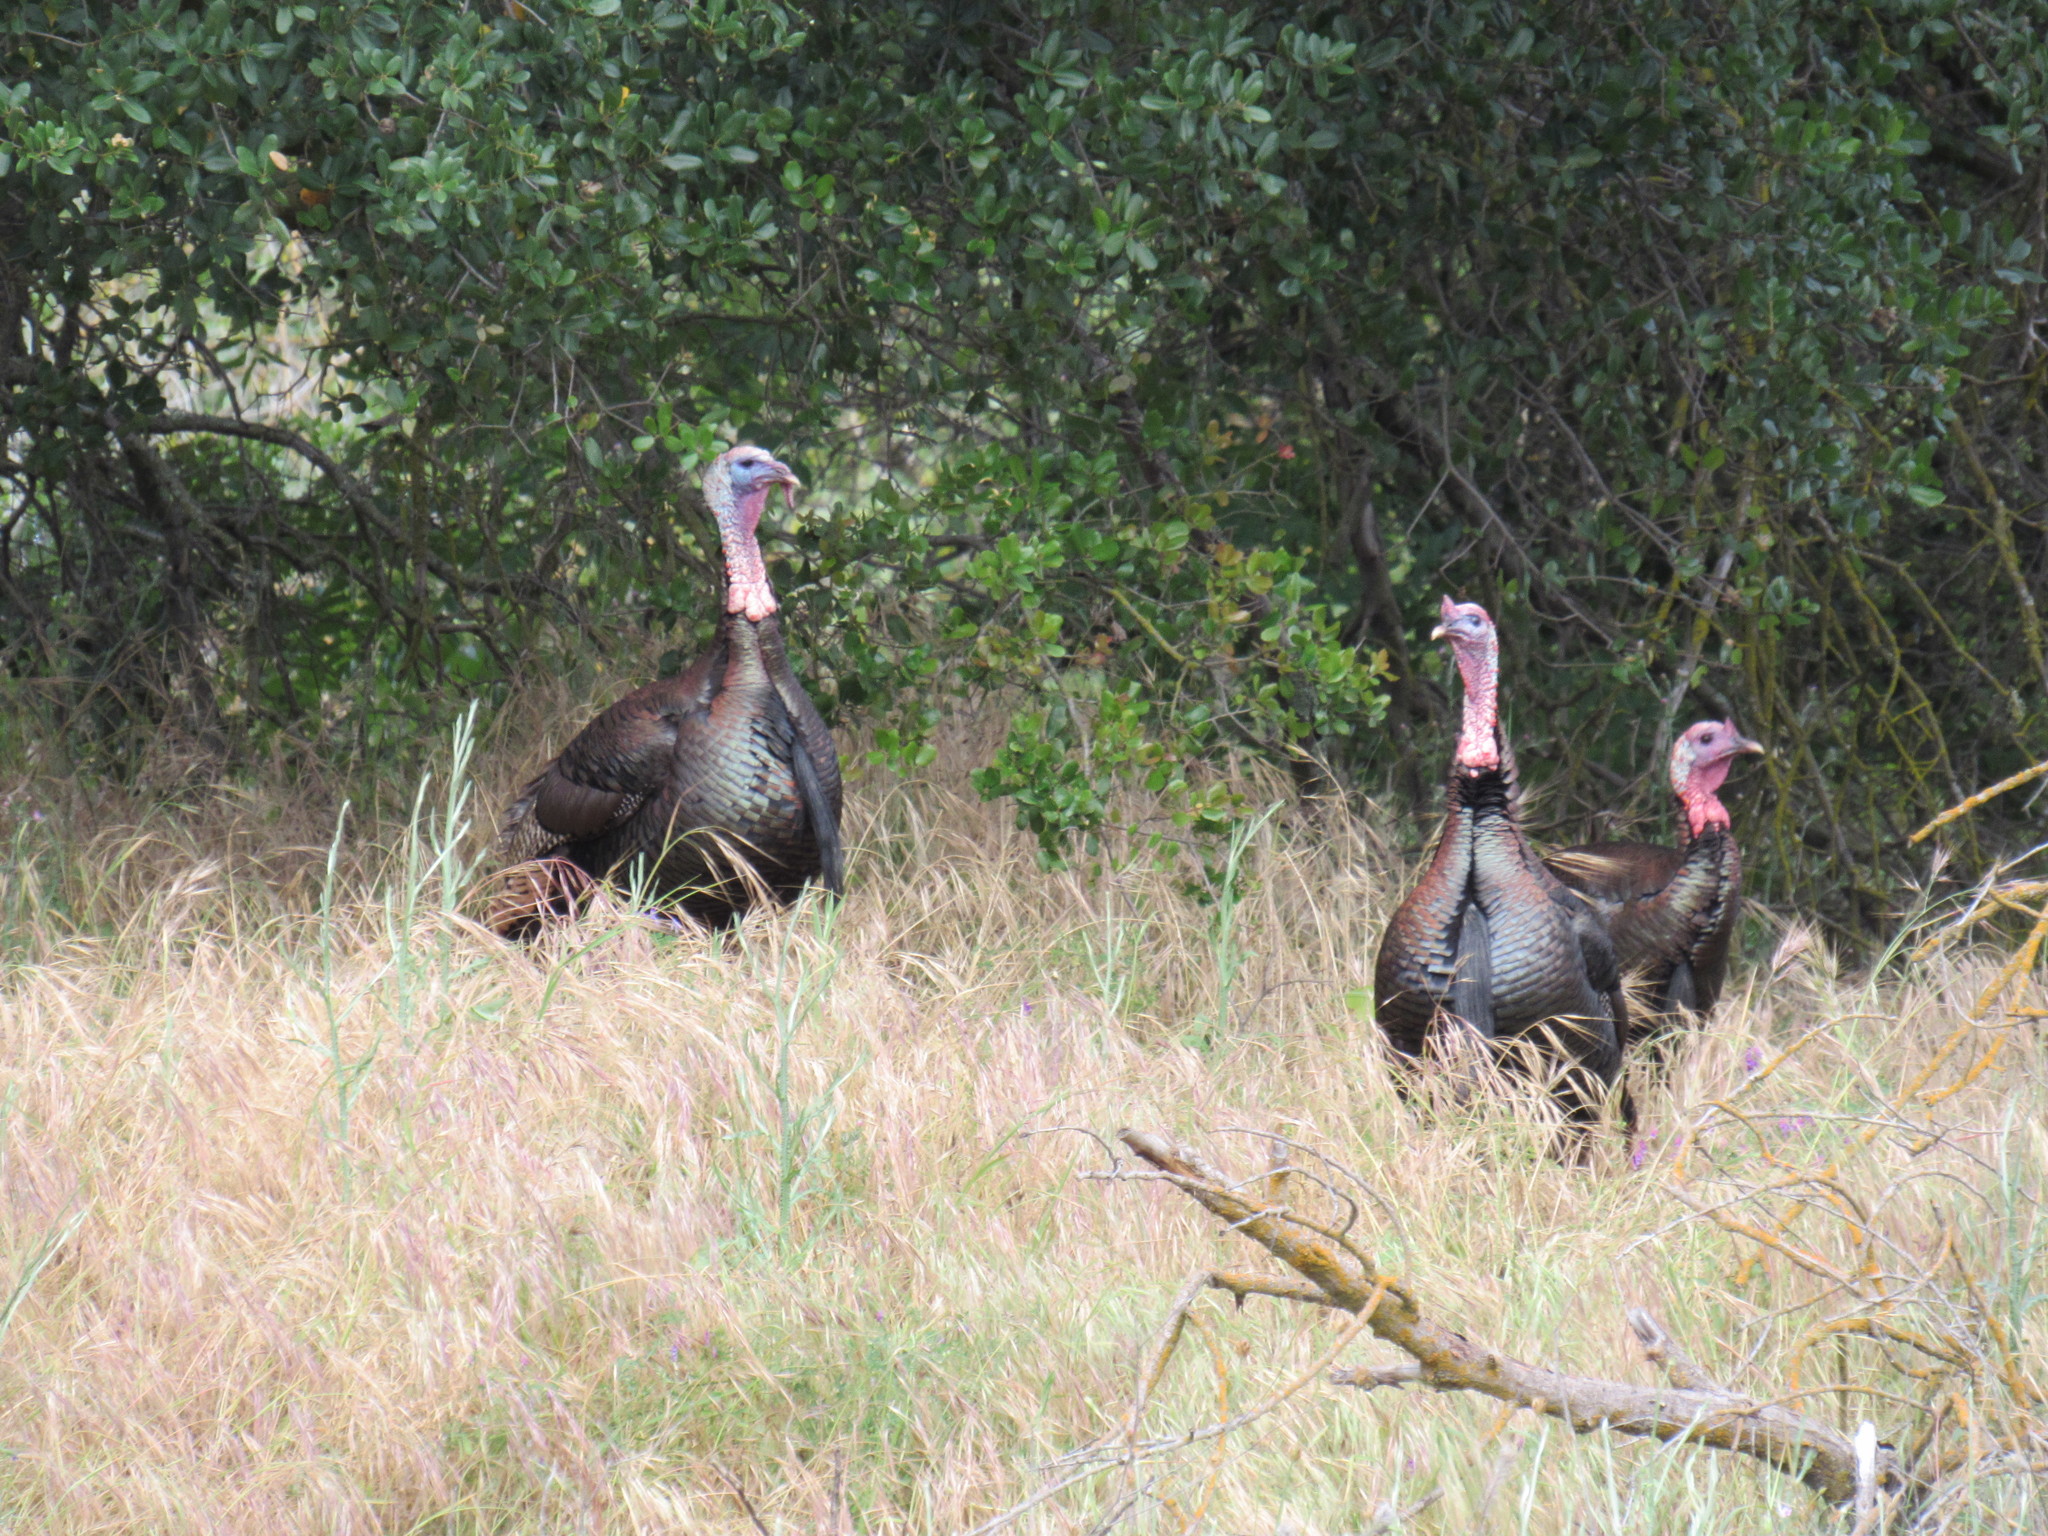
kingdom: Animalia
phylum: Chordata
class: Aves
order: Galliformes
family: Phasianidae
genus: Meleagris
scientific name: Meleagris gallopavo
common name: Wild turkey
